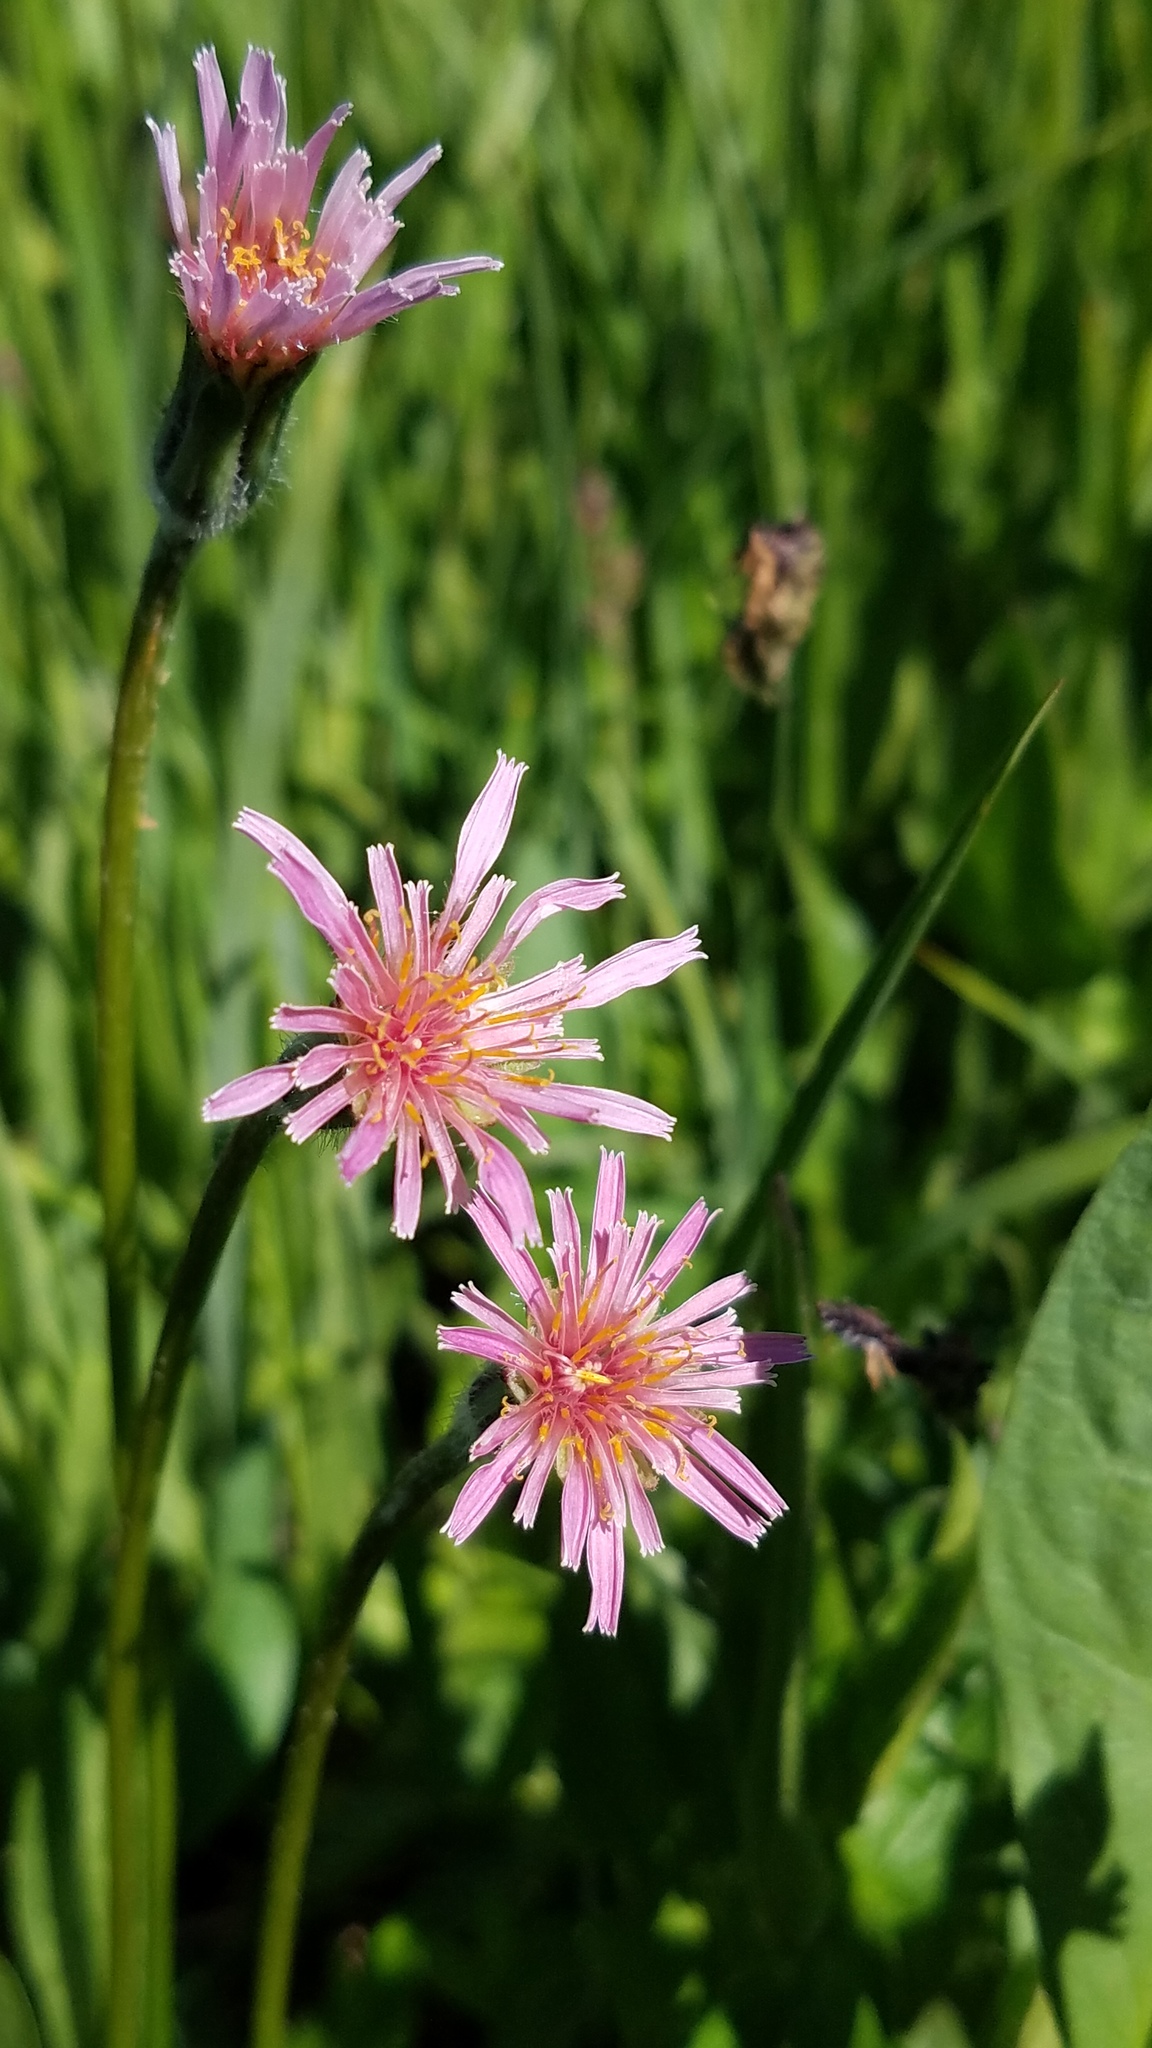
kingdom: Plantae
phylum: Tracheophyta
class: Magnoliopsida
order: Asterales
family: Asteraceae
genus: Agoseris
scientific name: Agoseris aurantiaca
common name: Mountain agoseris
